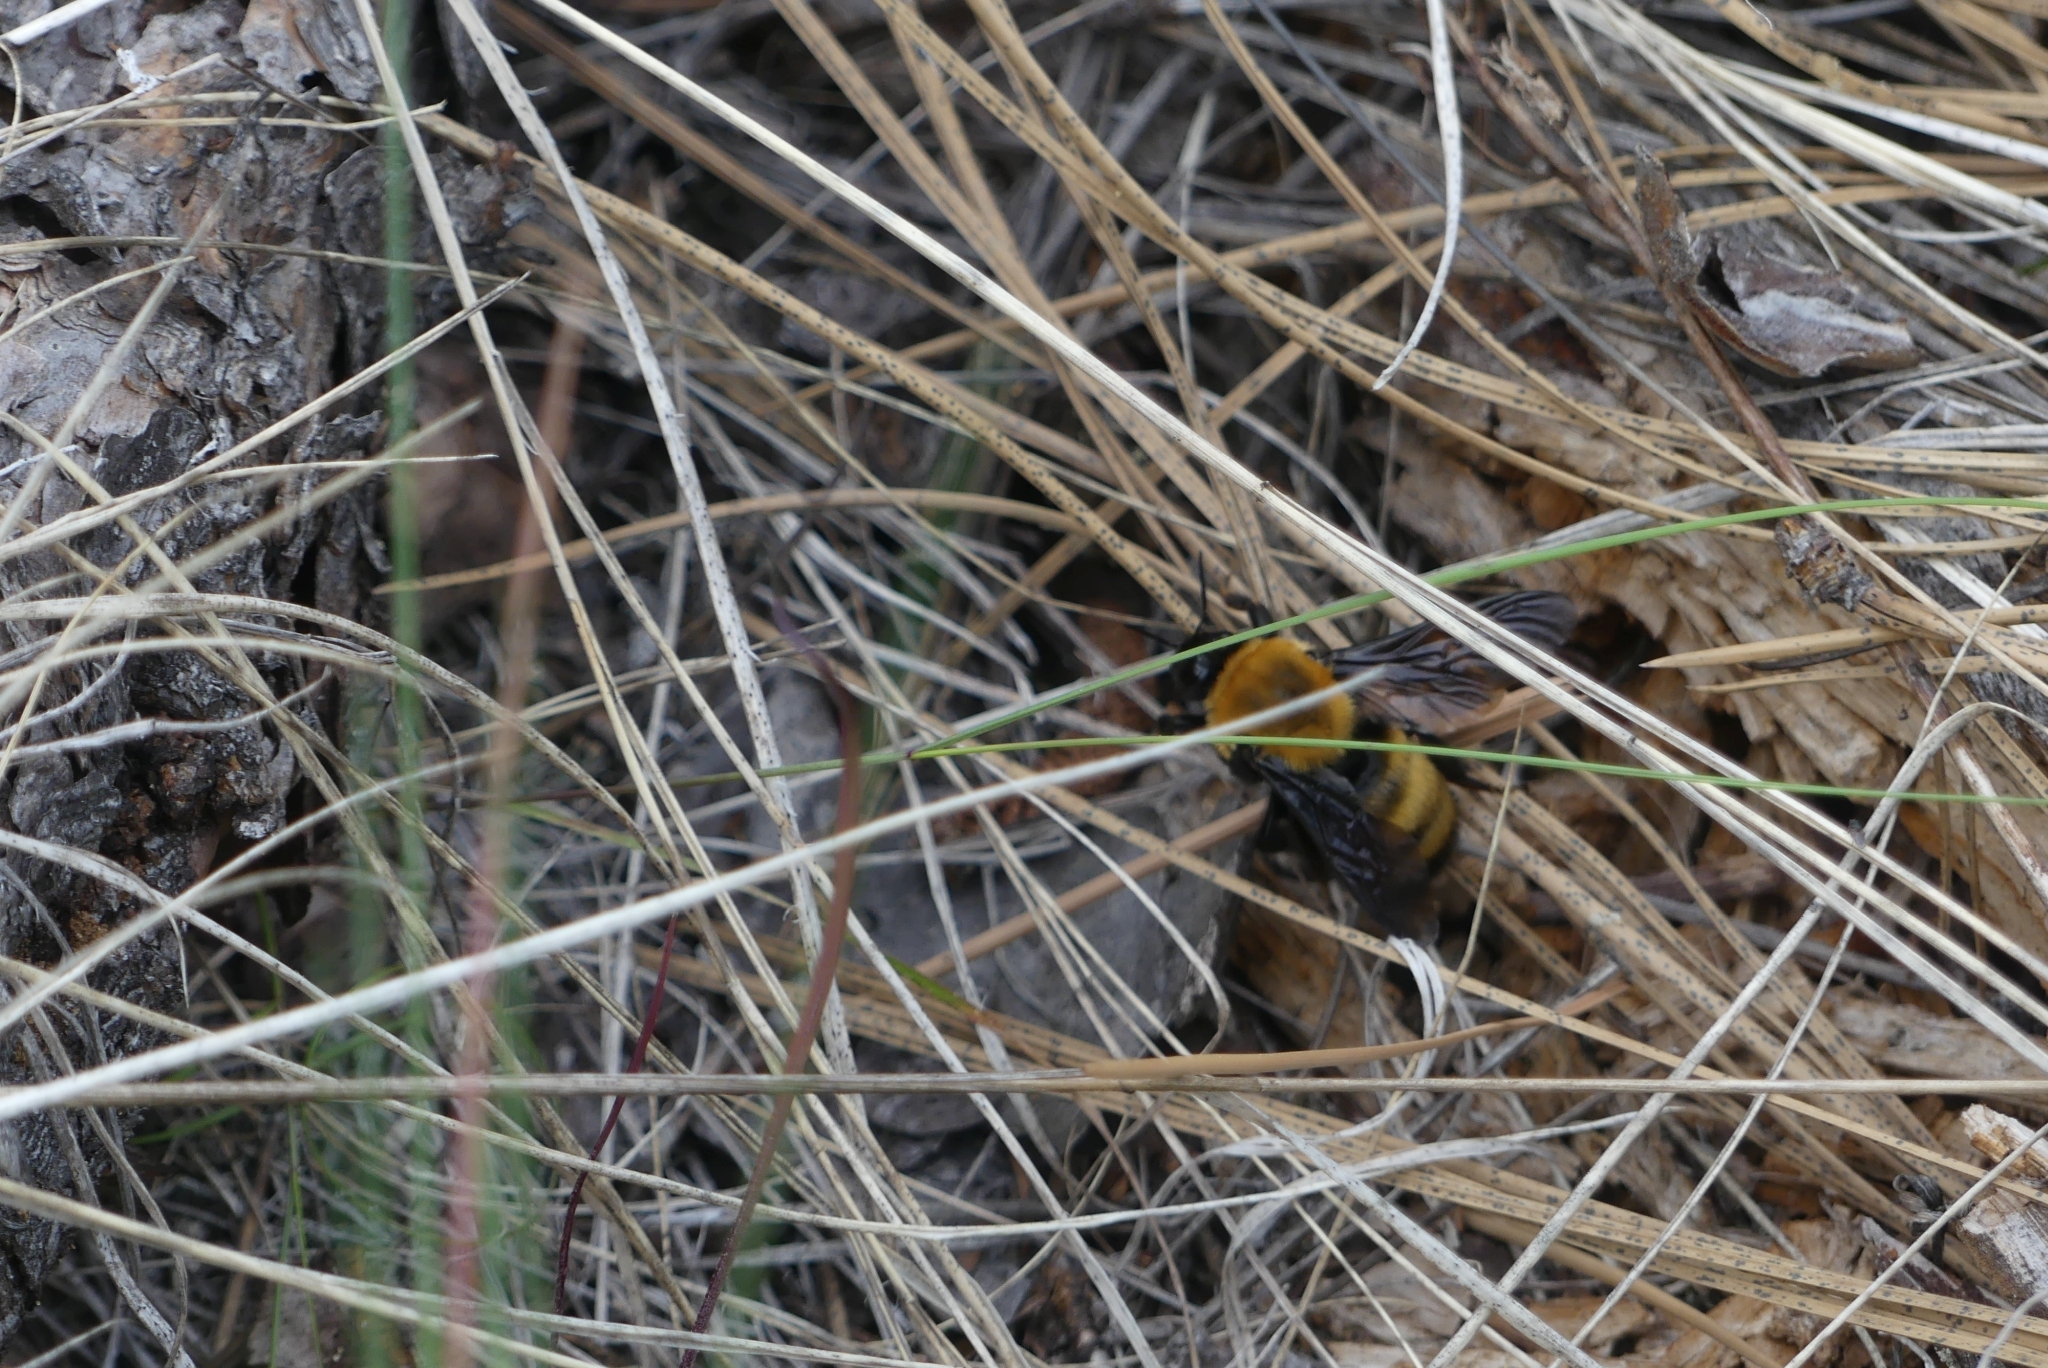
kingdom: Animalia
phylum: Arthropoda
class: Insecta
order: Hymenoptera
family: Apidae
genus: Bombus
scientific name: Bombus nevadensis
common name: Nevada bumble bee
